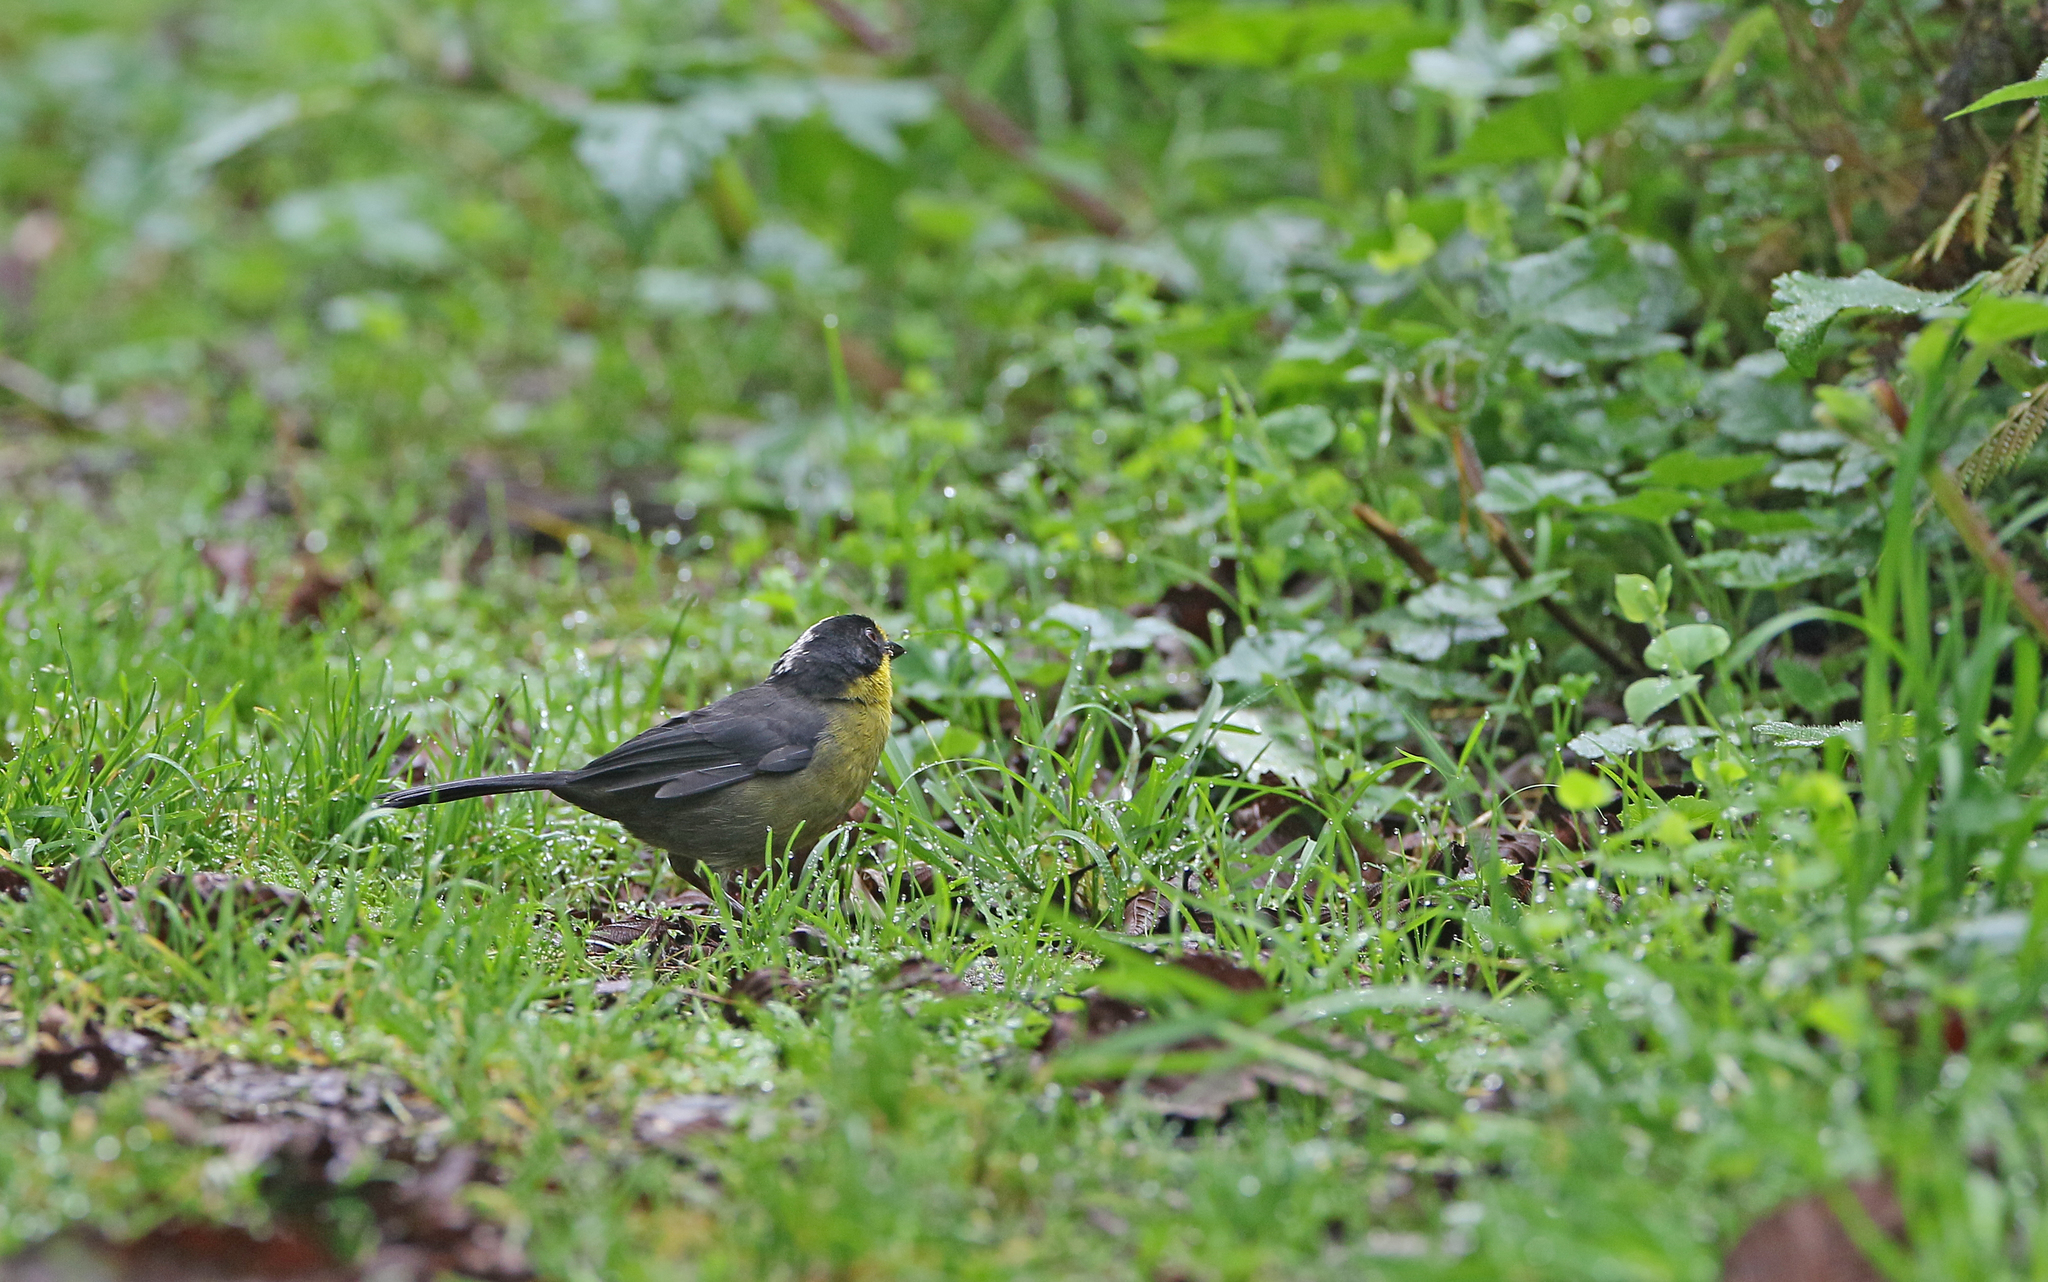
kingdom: Animalia
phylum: Chordata
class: Aves
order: Passeriformes
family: Passerellidae
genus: Atlapetes
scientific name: Atlapetes pallidinucha
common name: Pale-naped brushfinch
